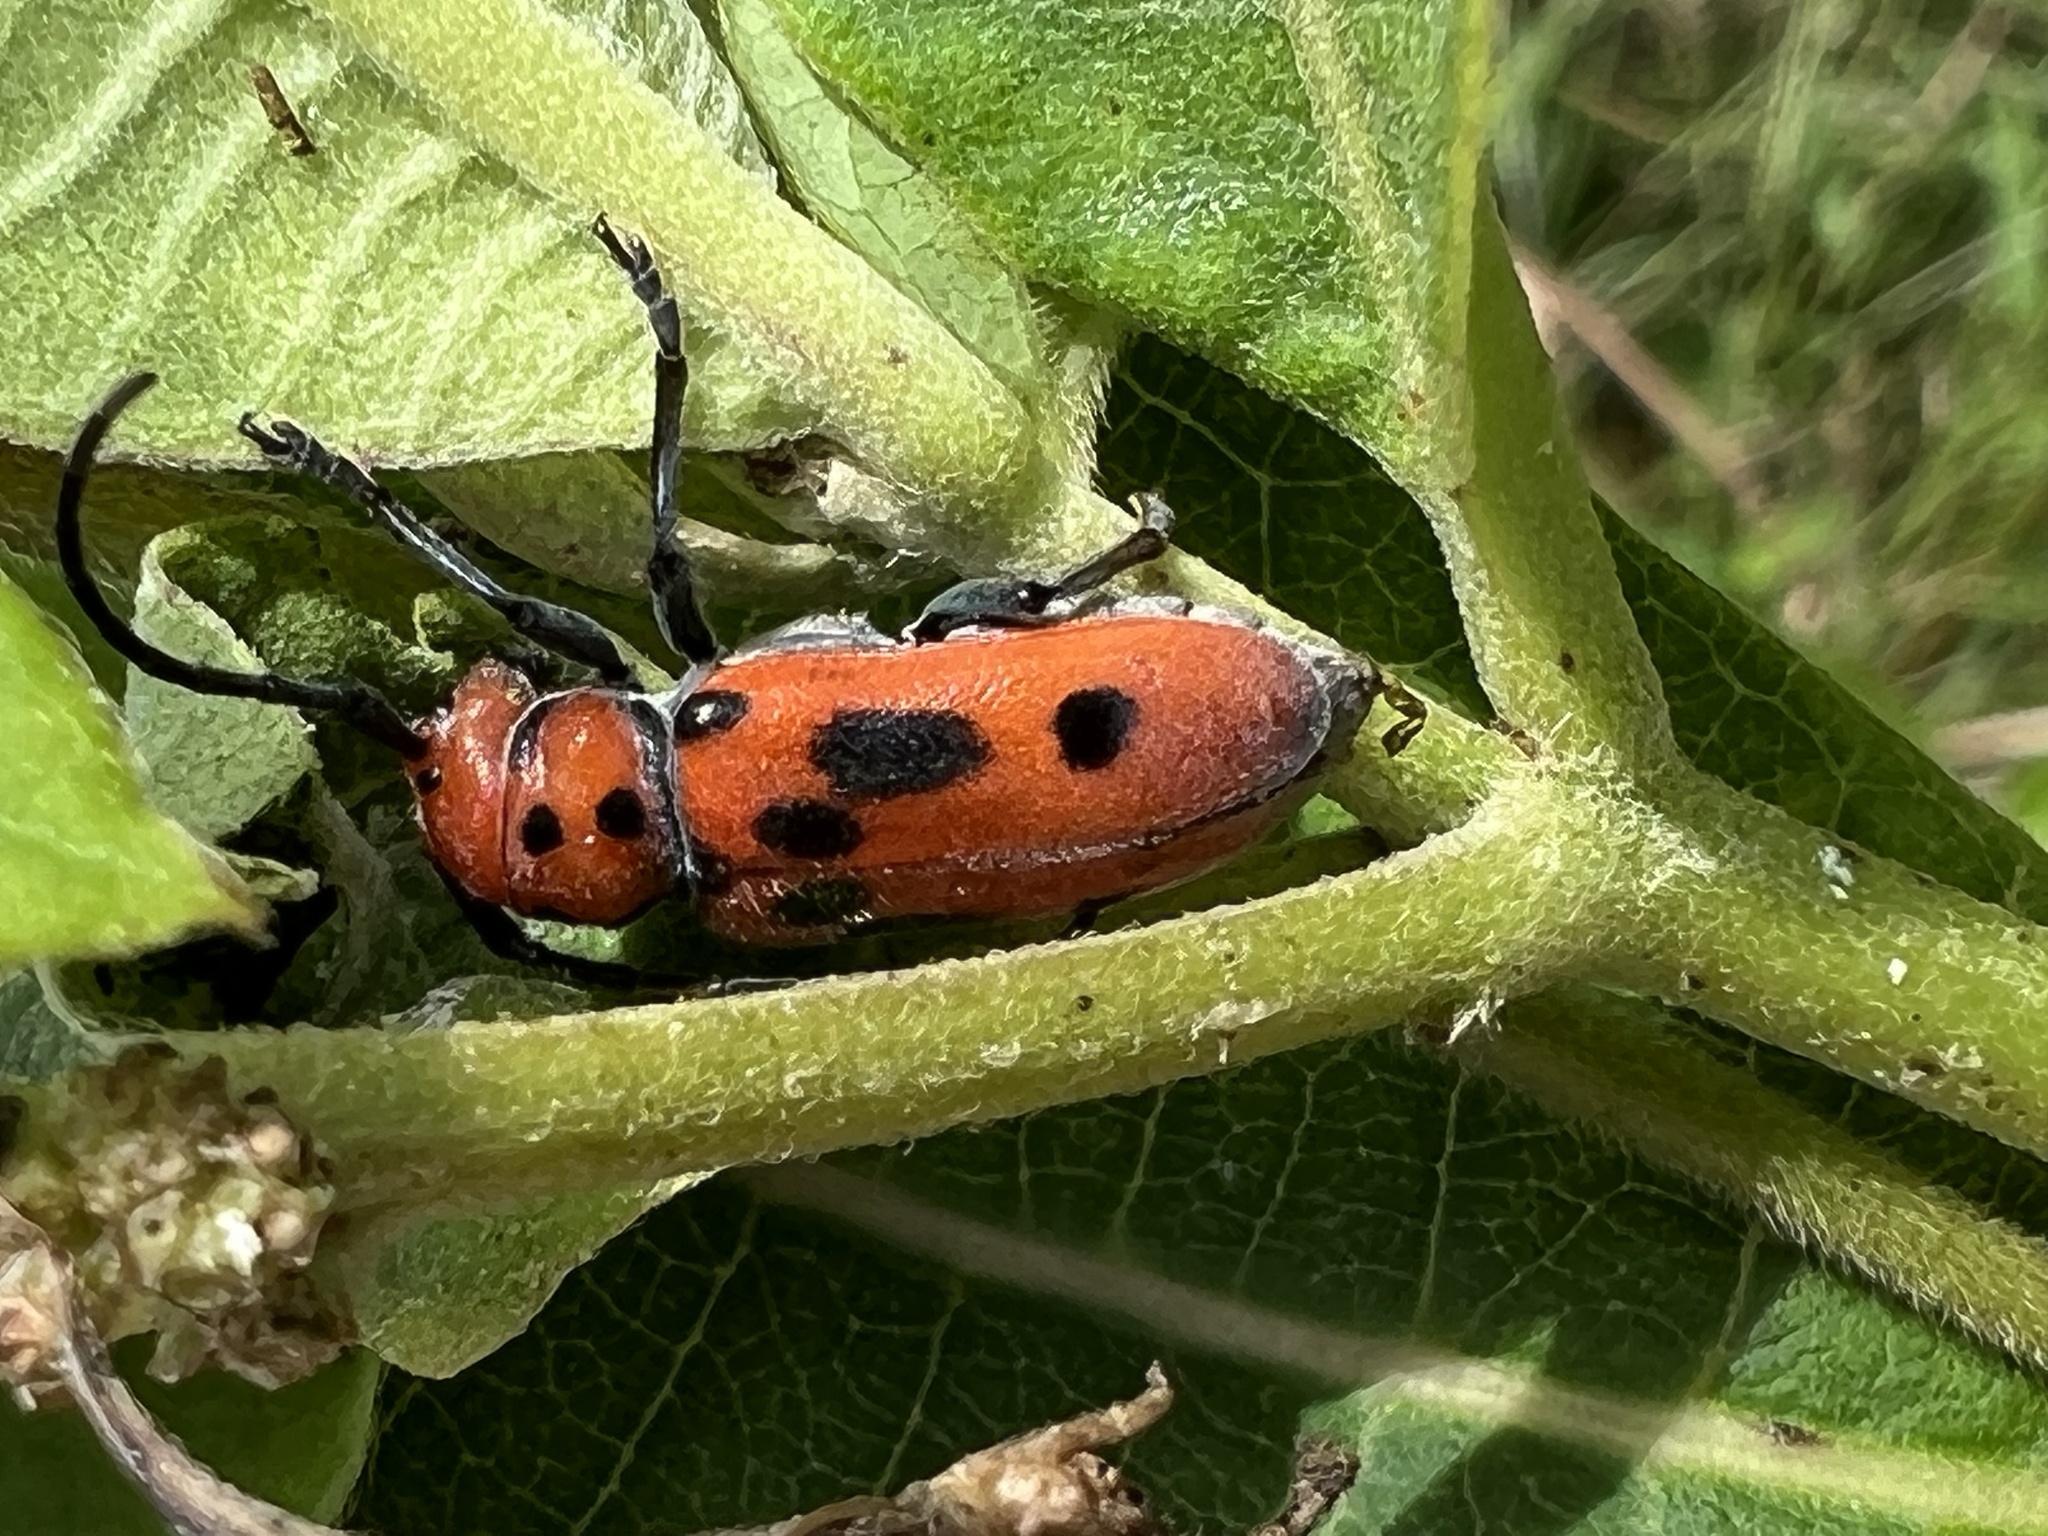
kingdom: Animalia
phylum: Arthropoda
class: Insecta
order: Coleoptera
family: Cerambycidae
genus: Tetraopes
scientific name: Tetraopes tetrophthalmus
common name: Red milkweed beetle
